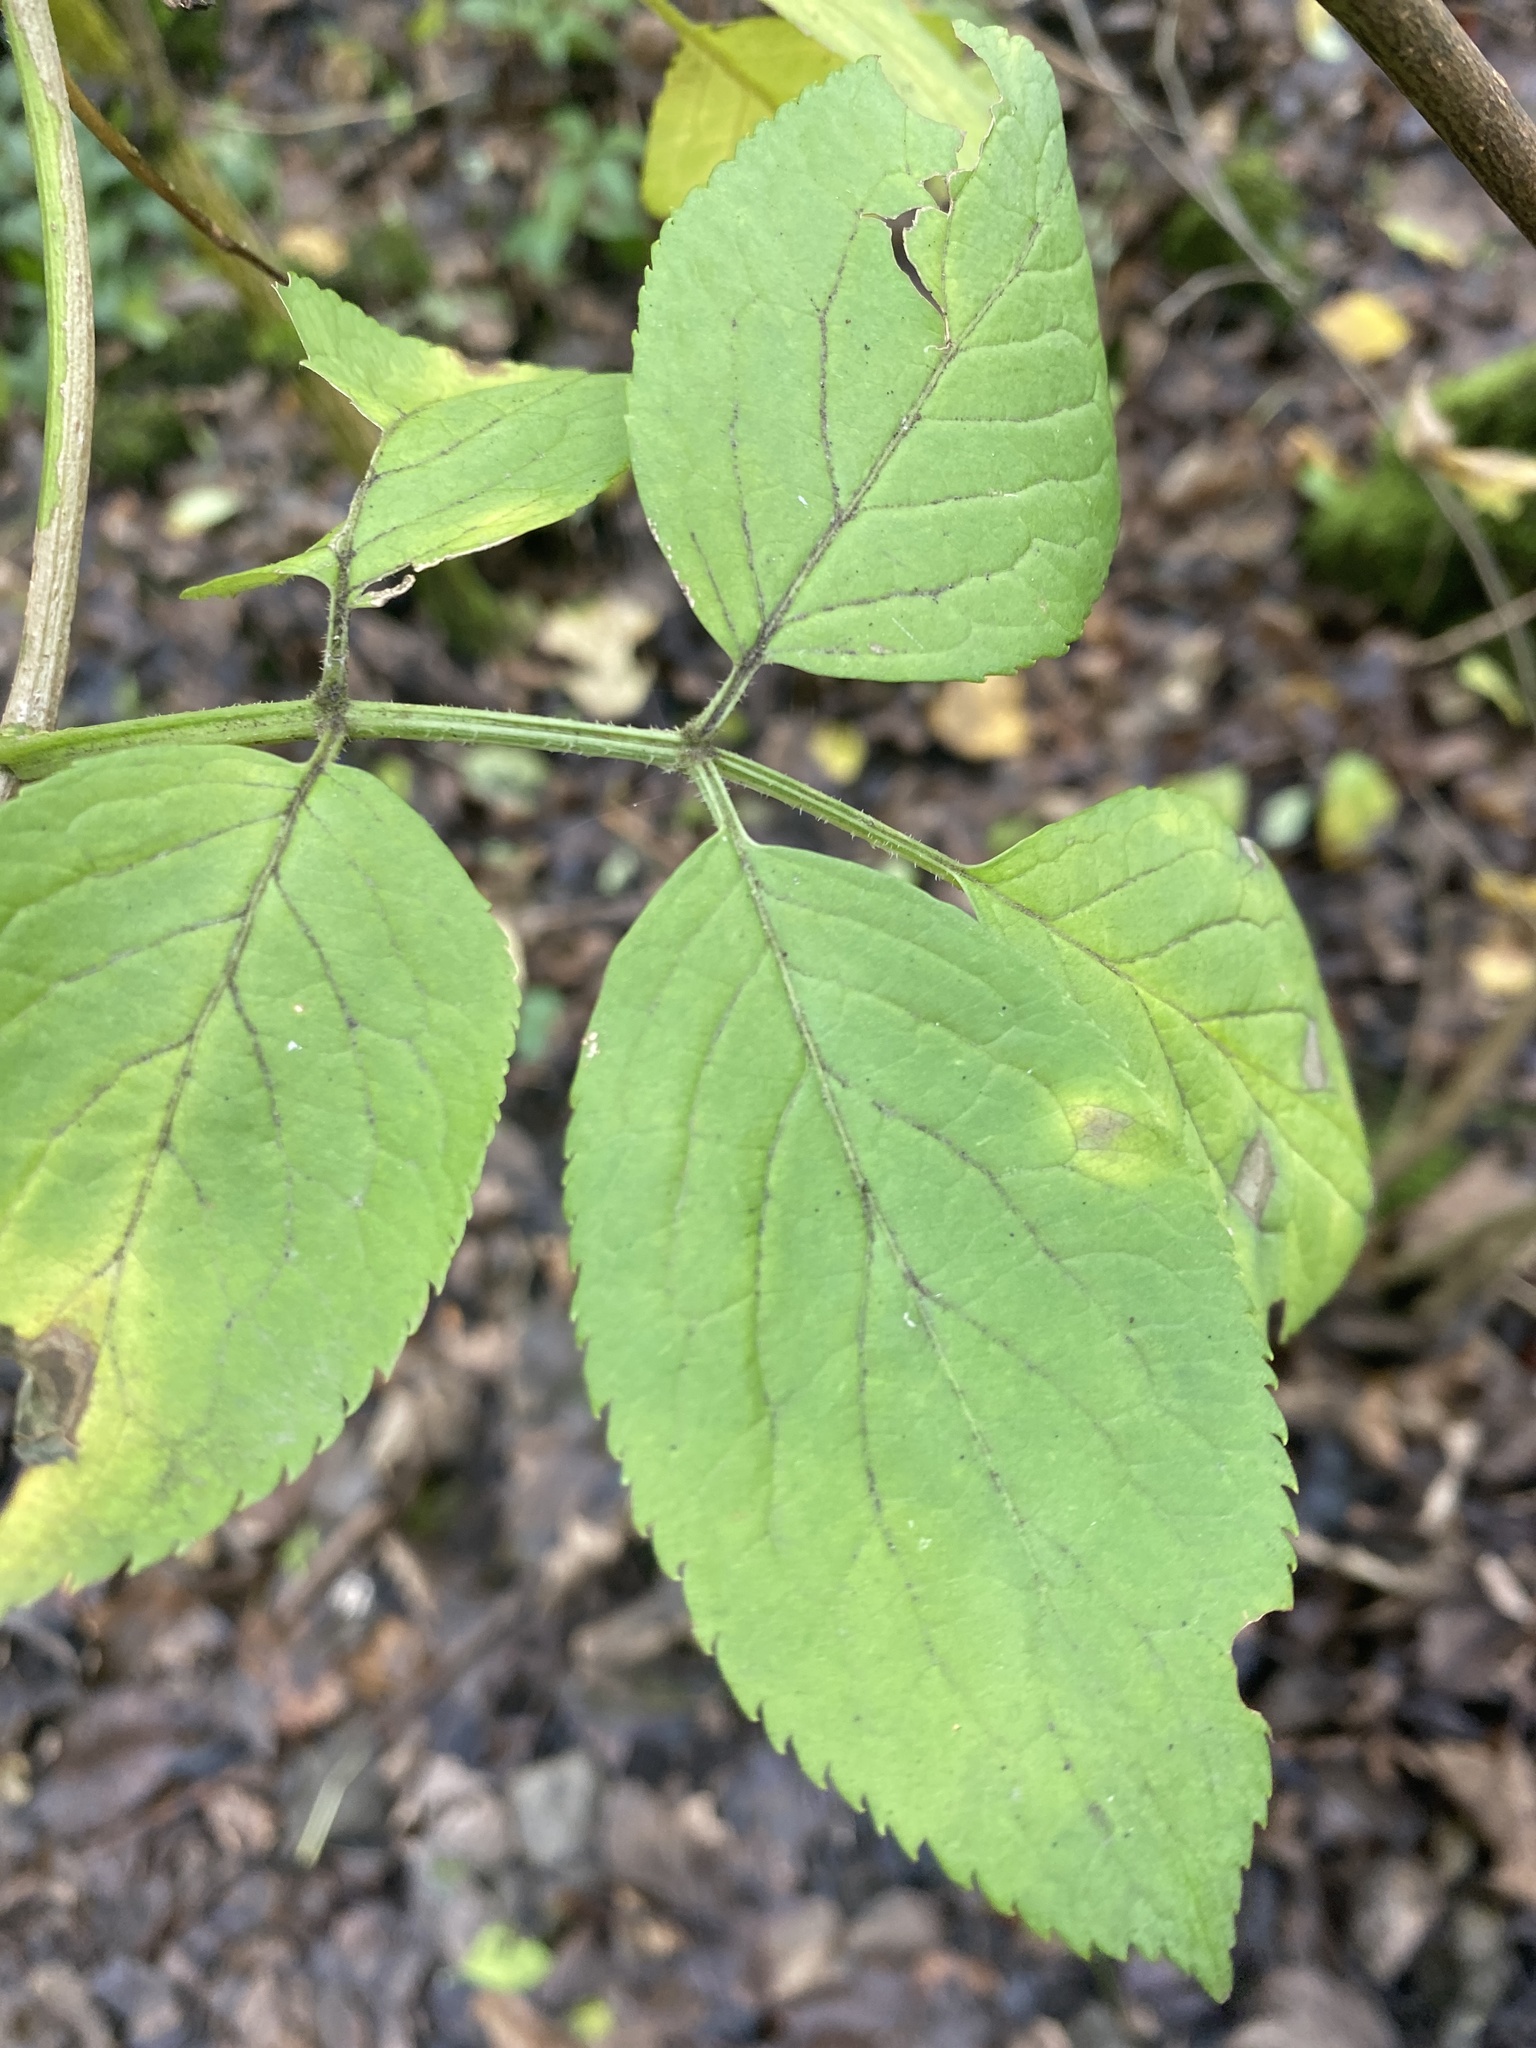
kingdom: Plantae
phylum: Tracheophyta
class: Magnoliopsida
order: Dipsacales
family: Viburnaceae
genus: Sambucus
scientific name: Sambucus nigra
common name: Elder
